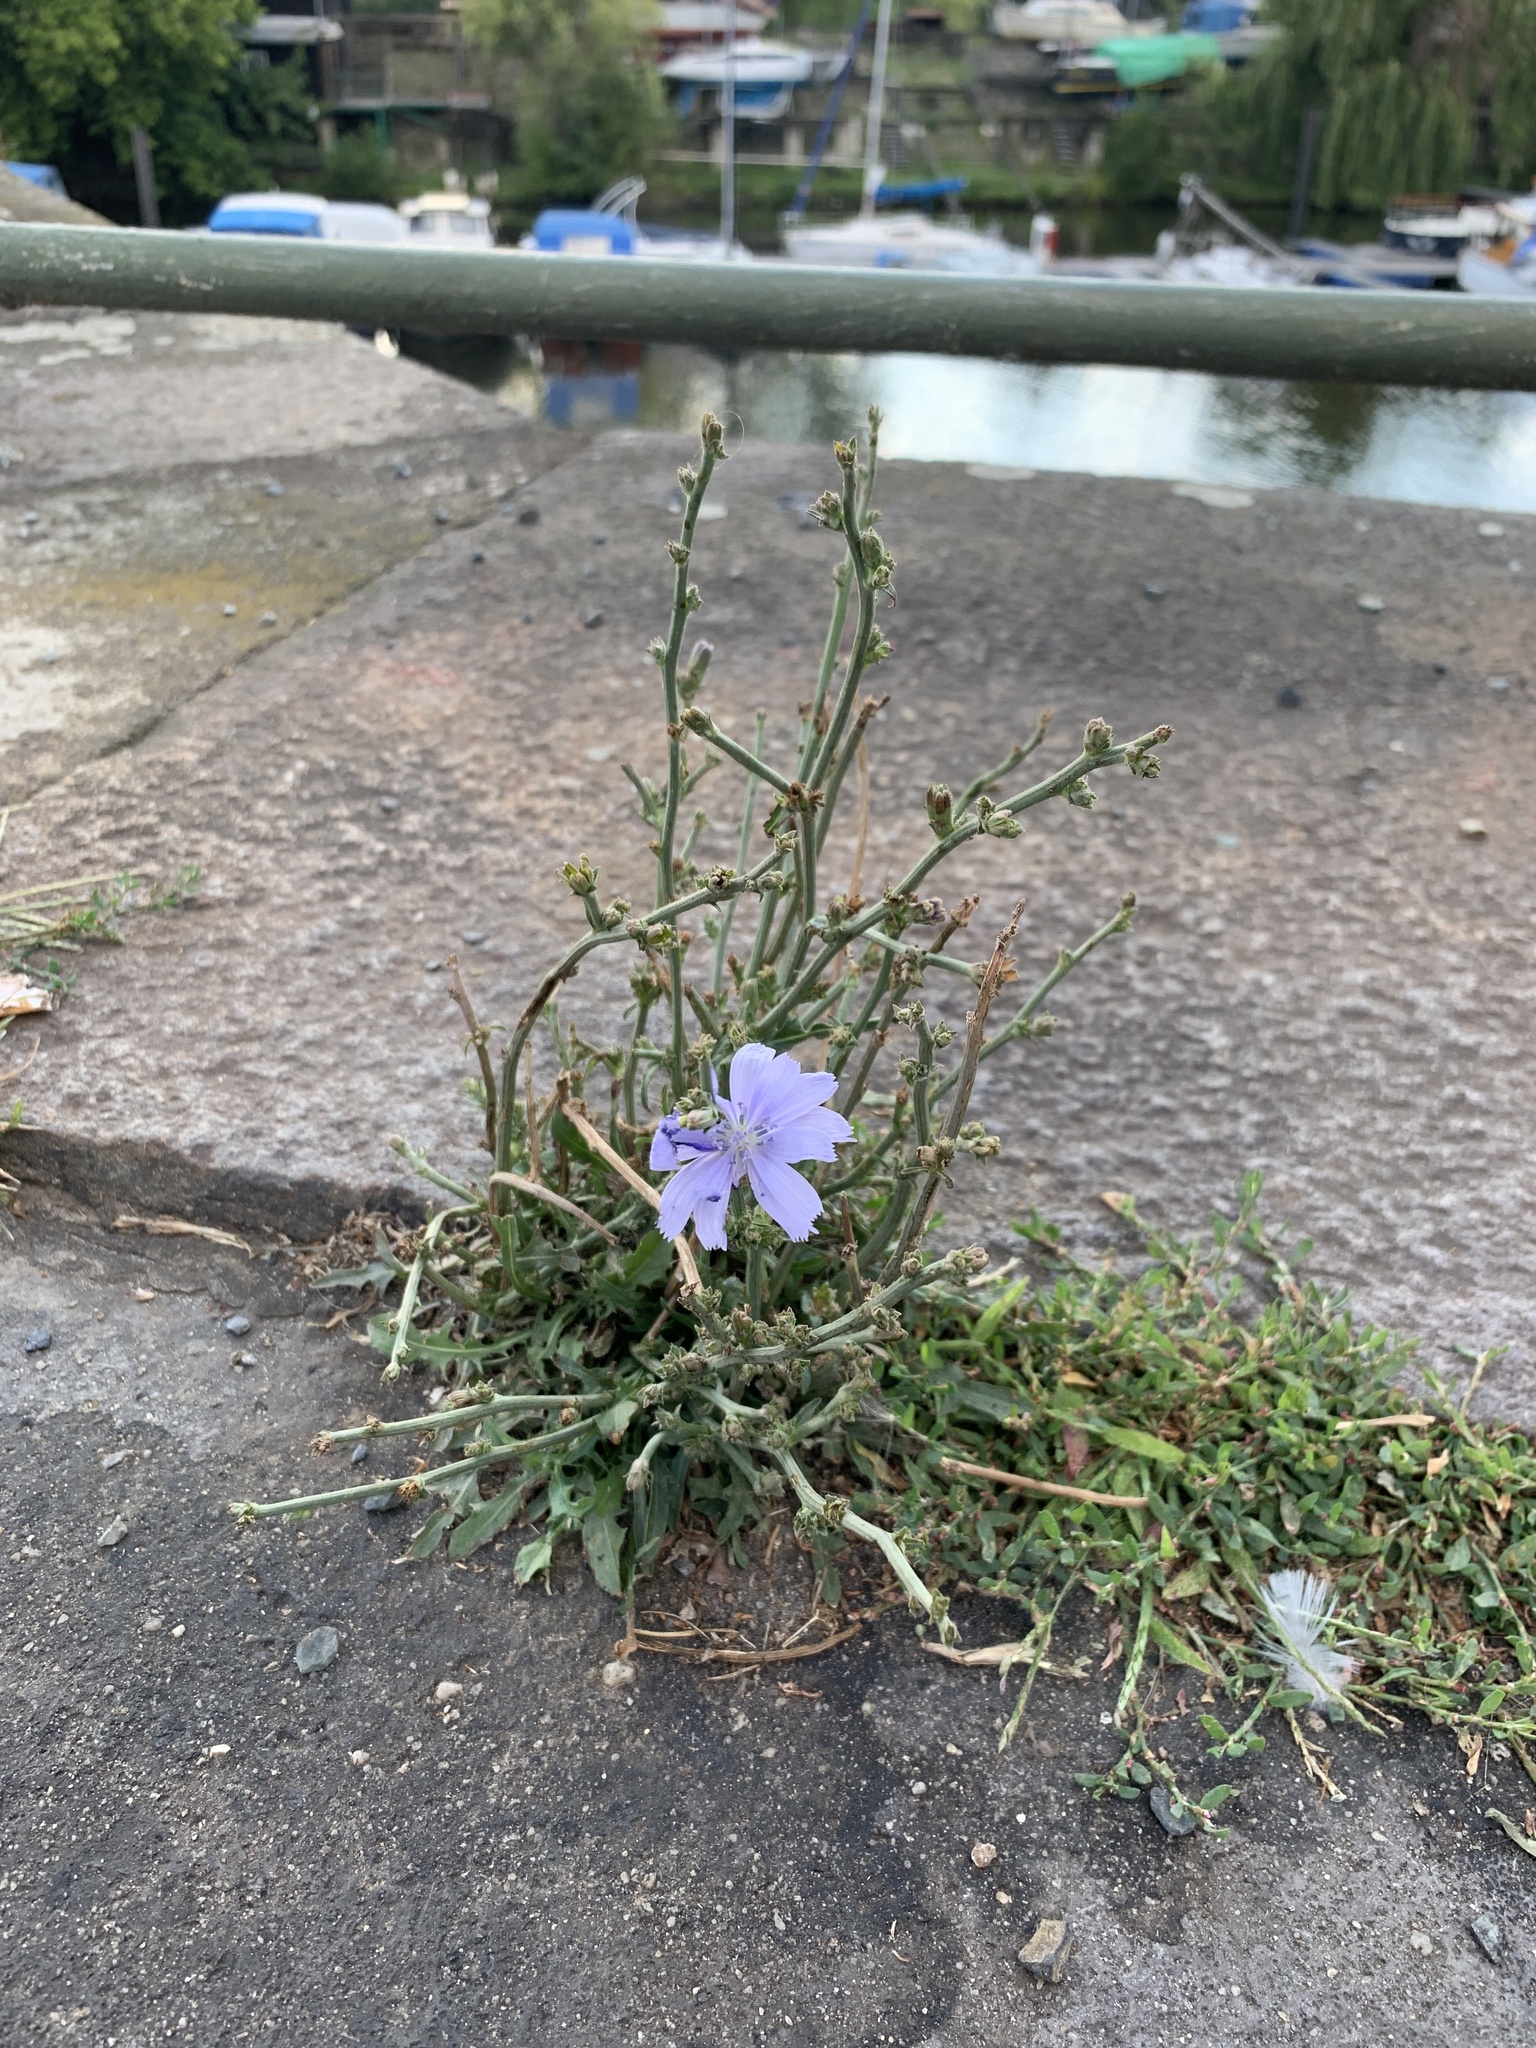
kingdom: Plantae
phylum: Tracheophyta
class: Magnoliopsida
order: Asterales
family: Asteraceae
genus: Cichorium
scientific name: Cichorium intybus
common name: Chicory
